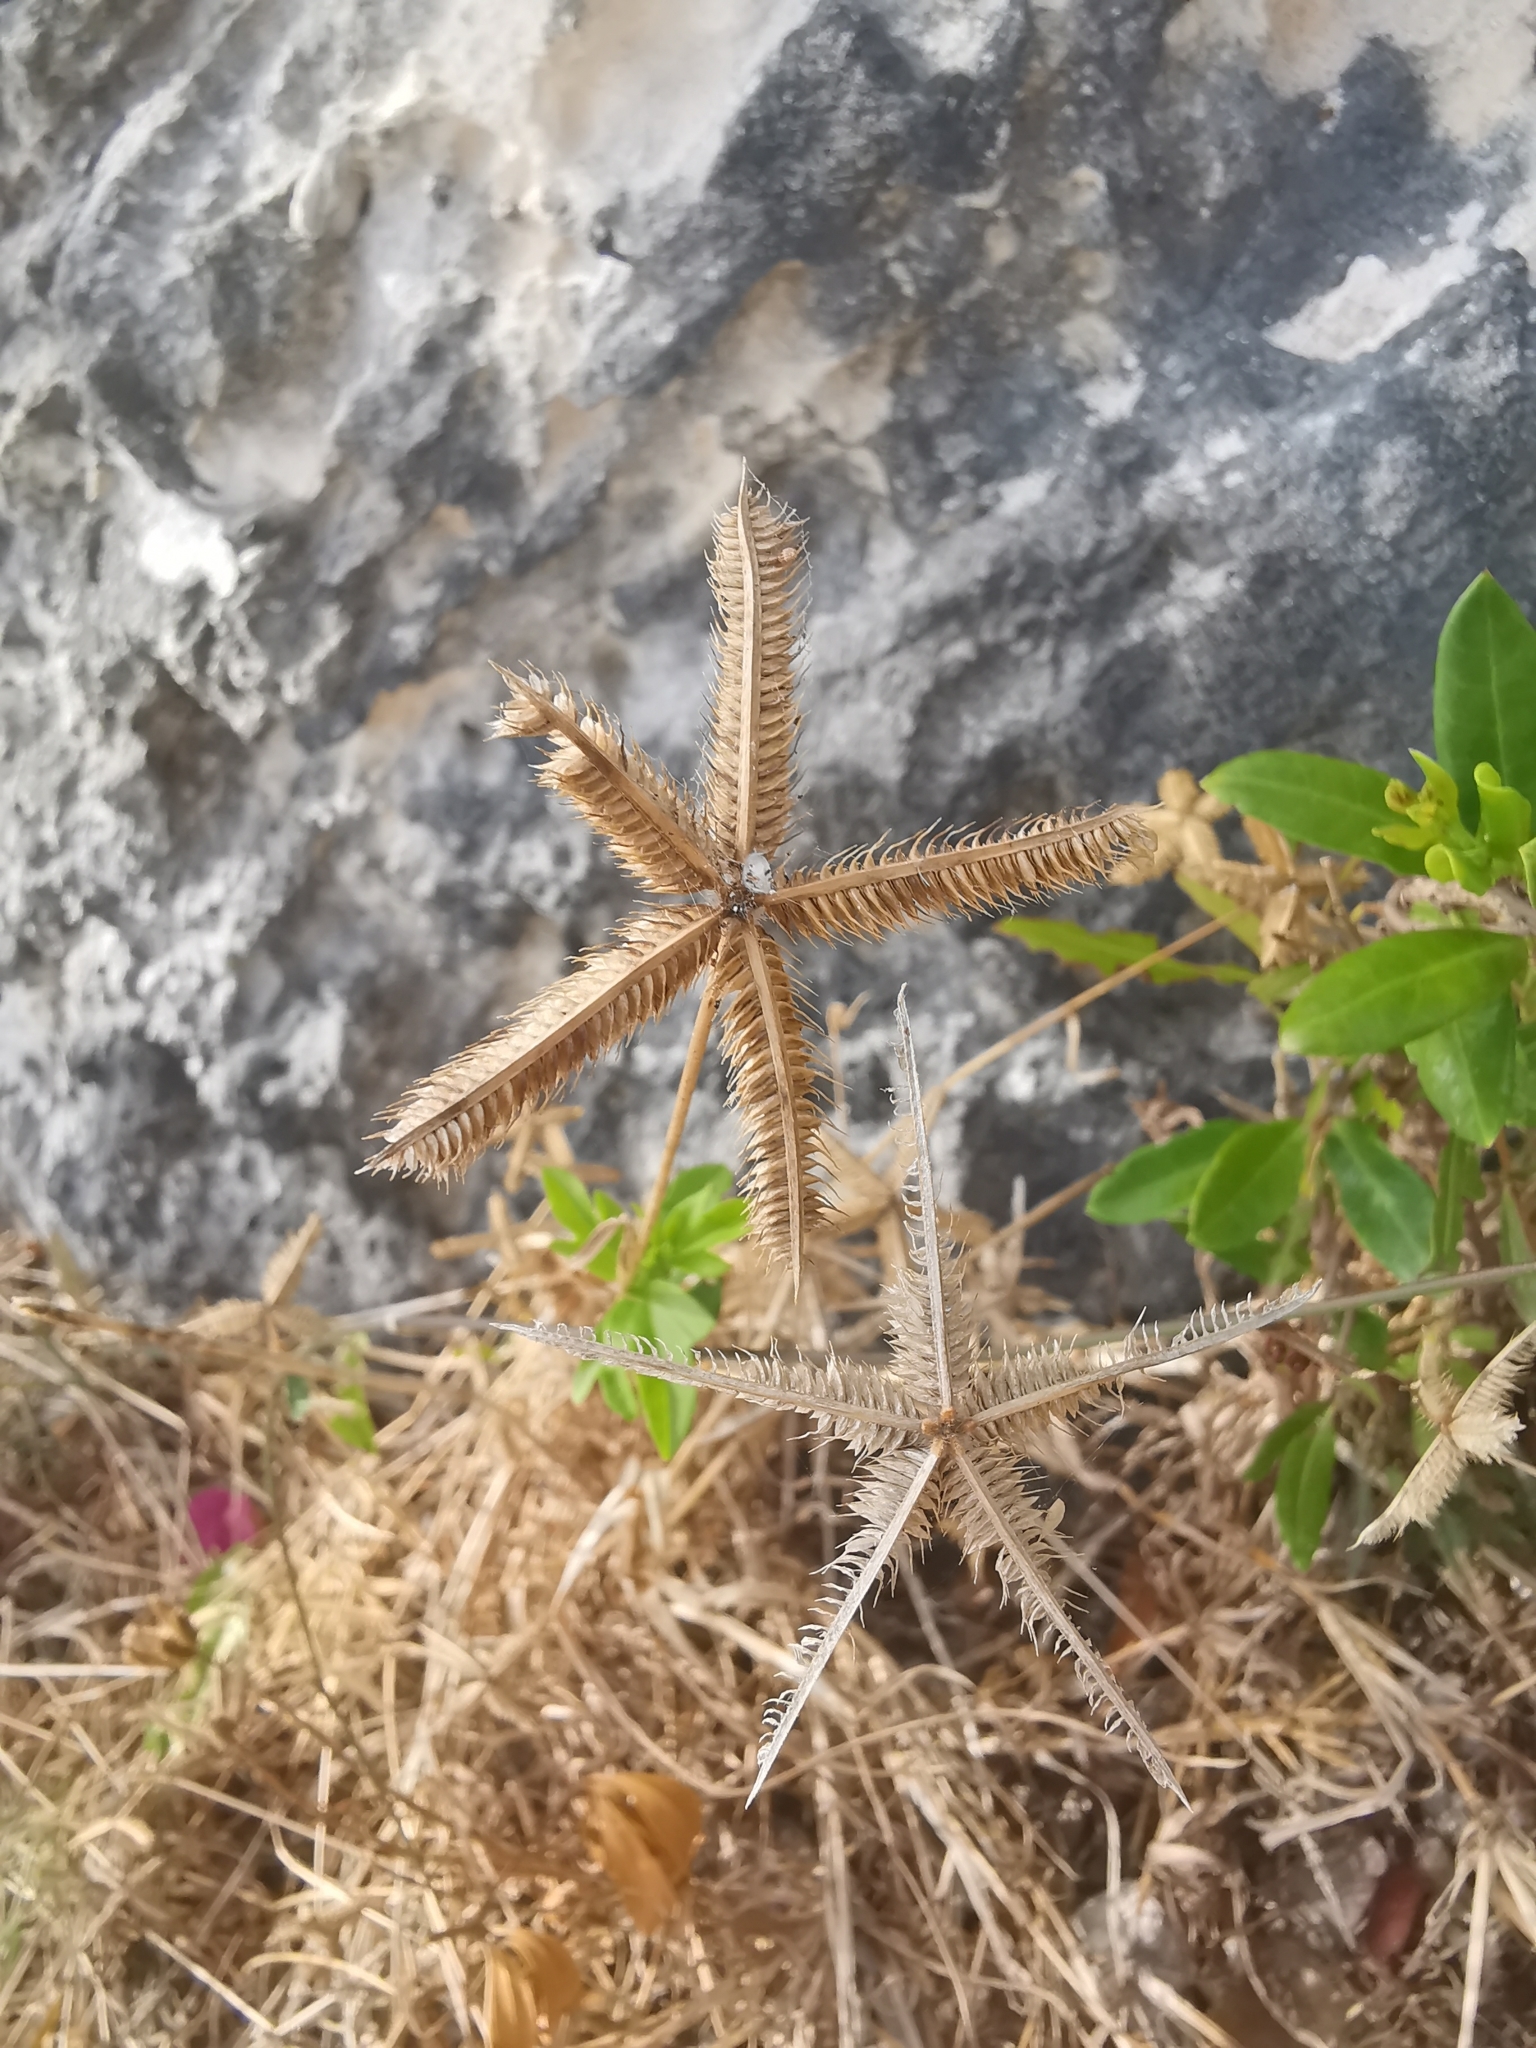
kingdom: Plantae
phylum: Tracheophyta
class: Liliopsida
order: Poales
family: Poaceae
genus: Dactyloctenium
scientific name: Dactyloctenium aegyptium
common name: Egyptian grass
